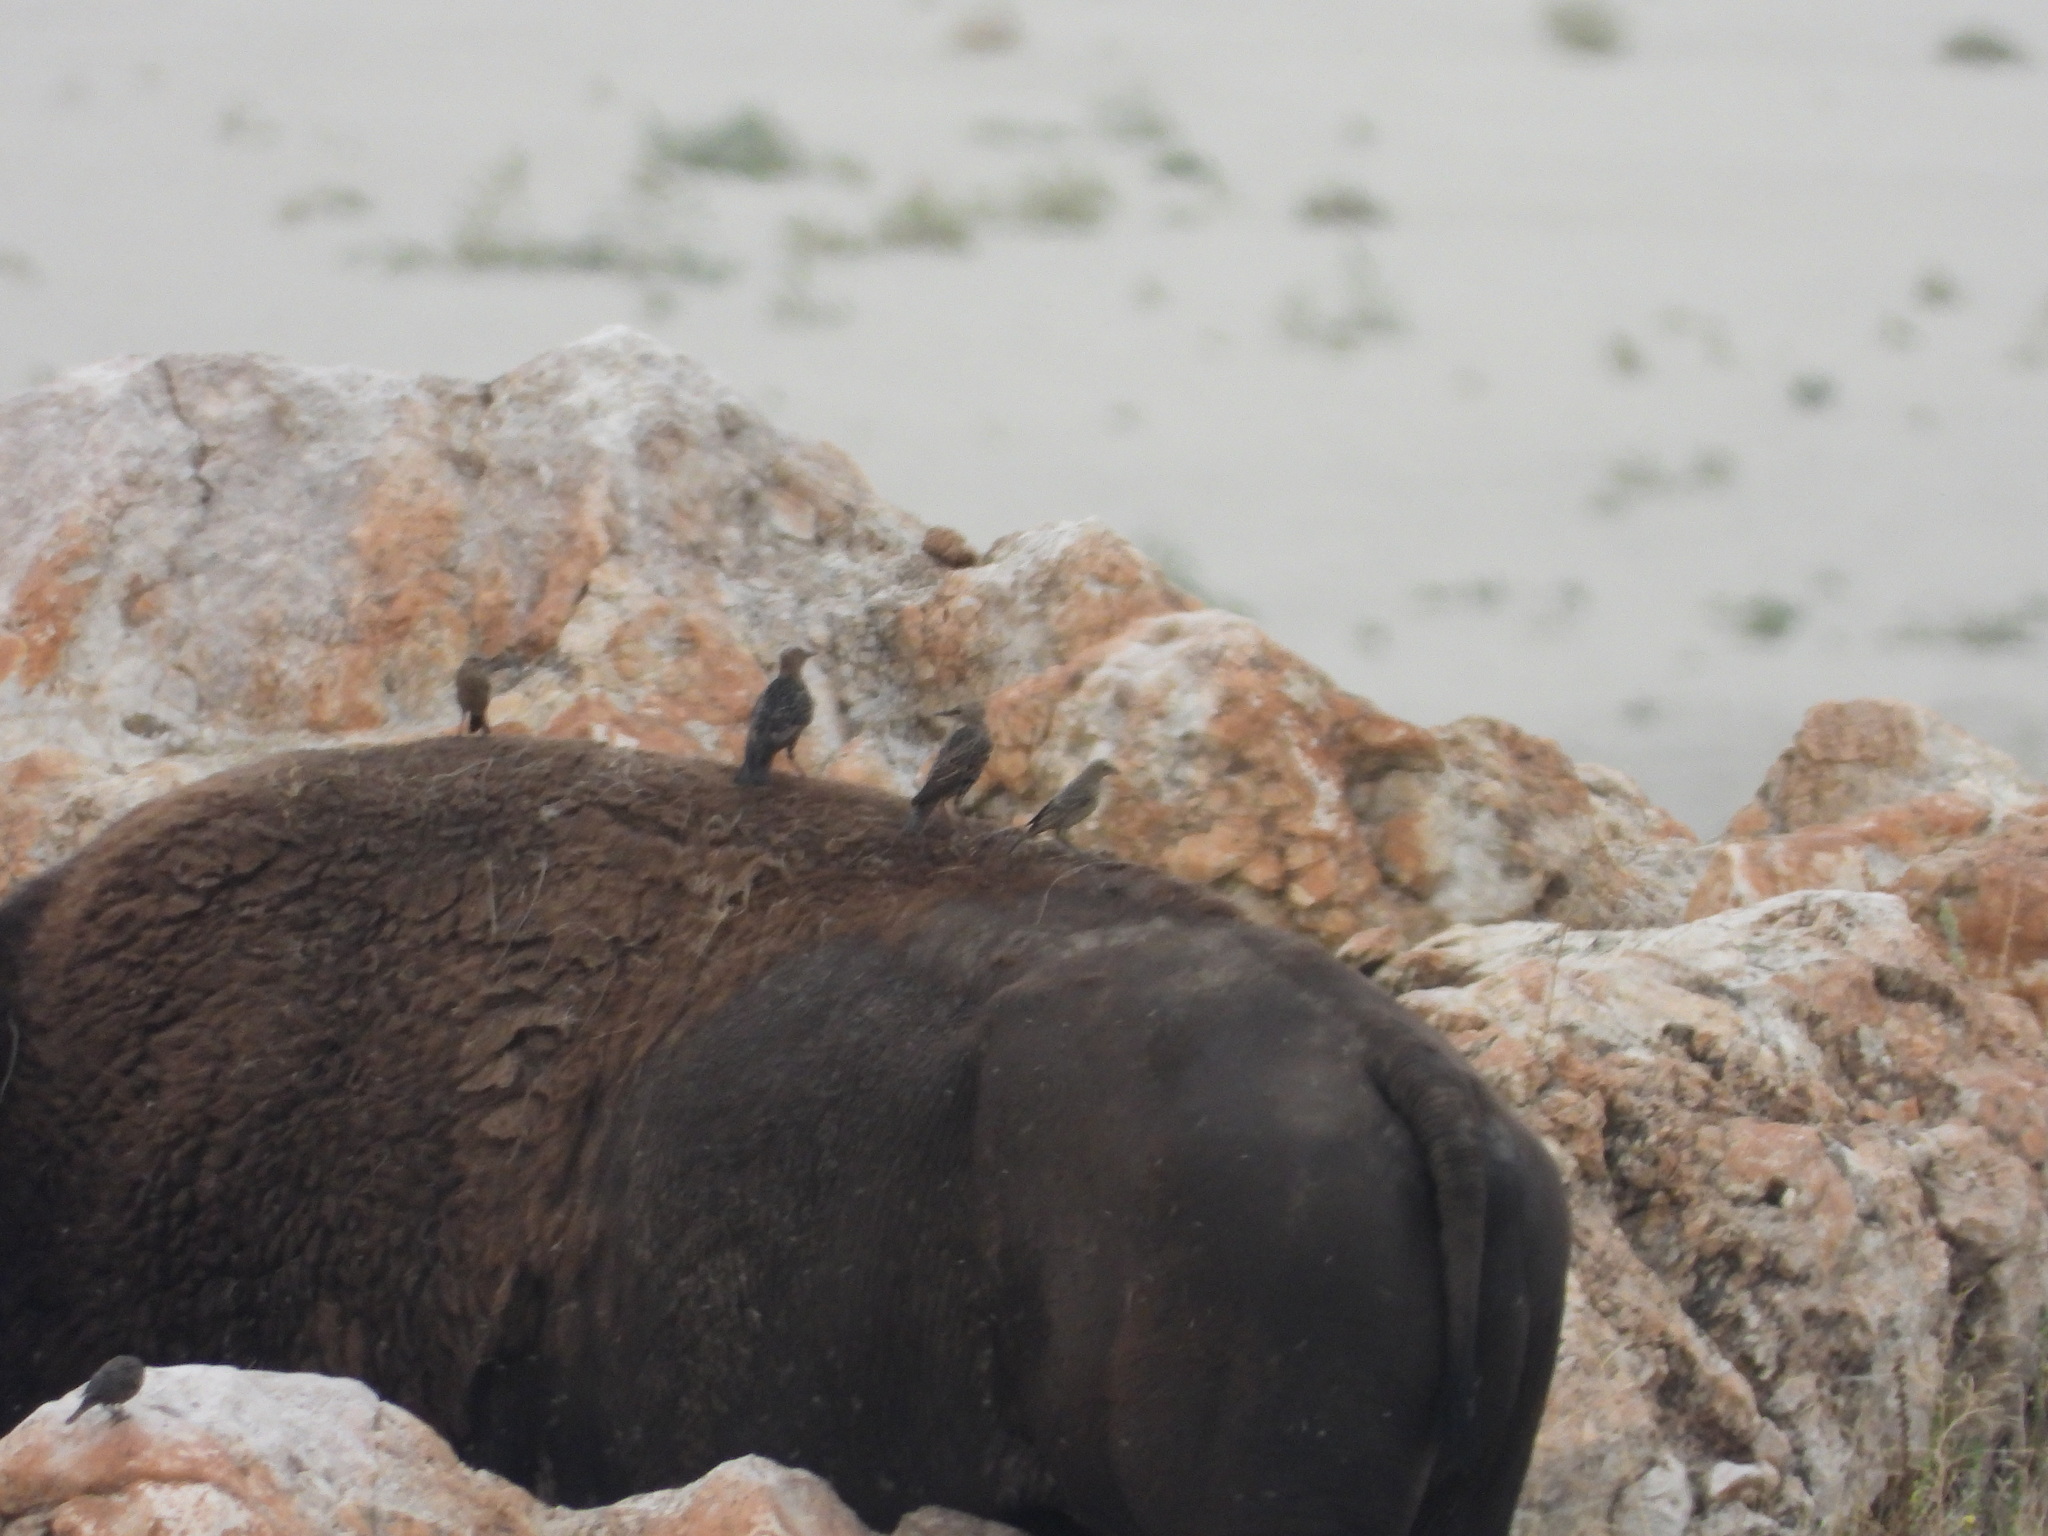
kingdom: Animalia
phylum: Chordata
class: Aves
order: Passeriformes
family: Icteridae
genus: Molothrus
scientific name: Molothrus ater
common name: Brown-headed cowbird
